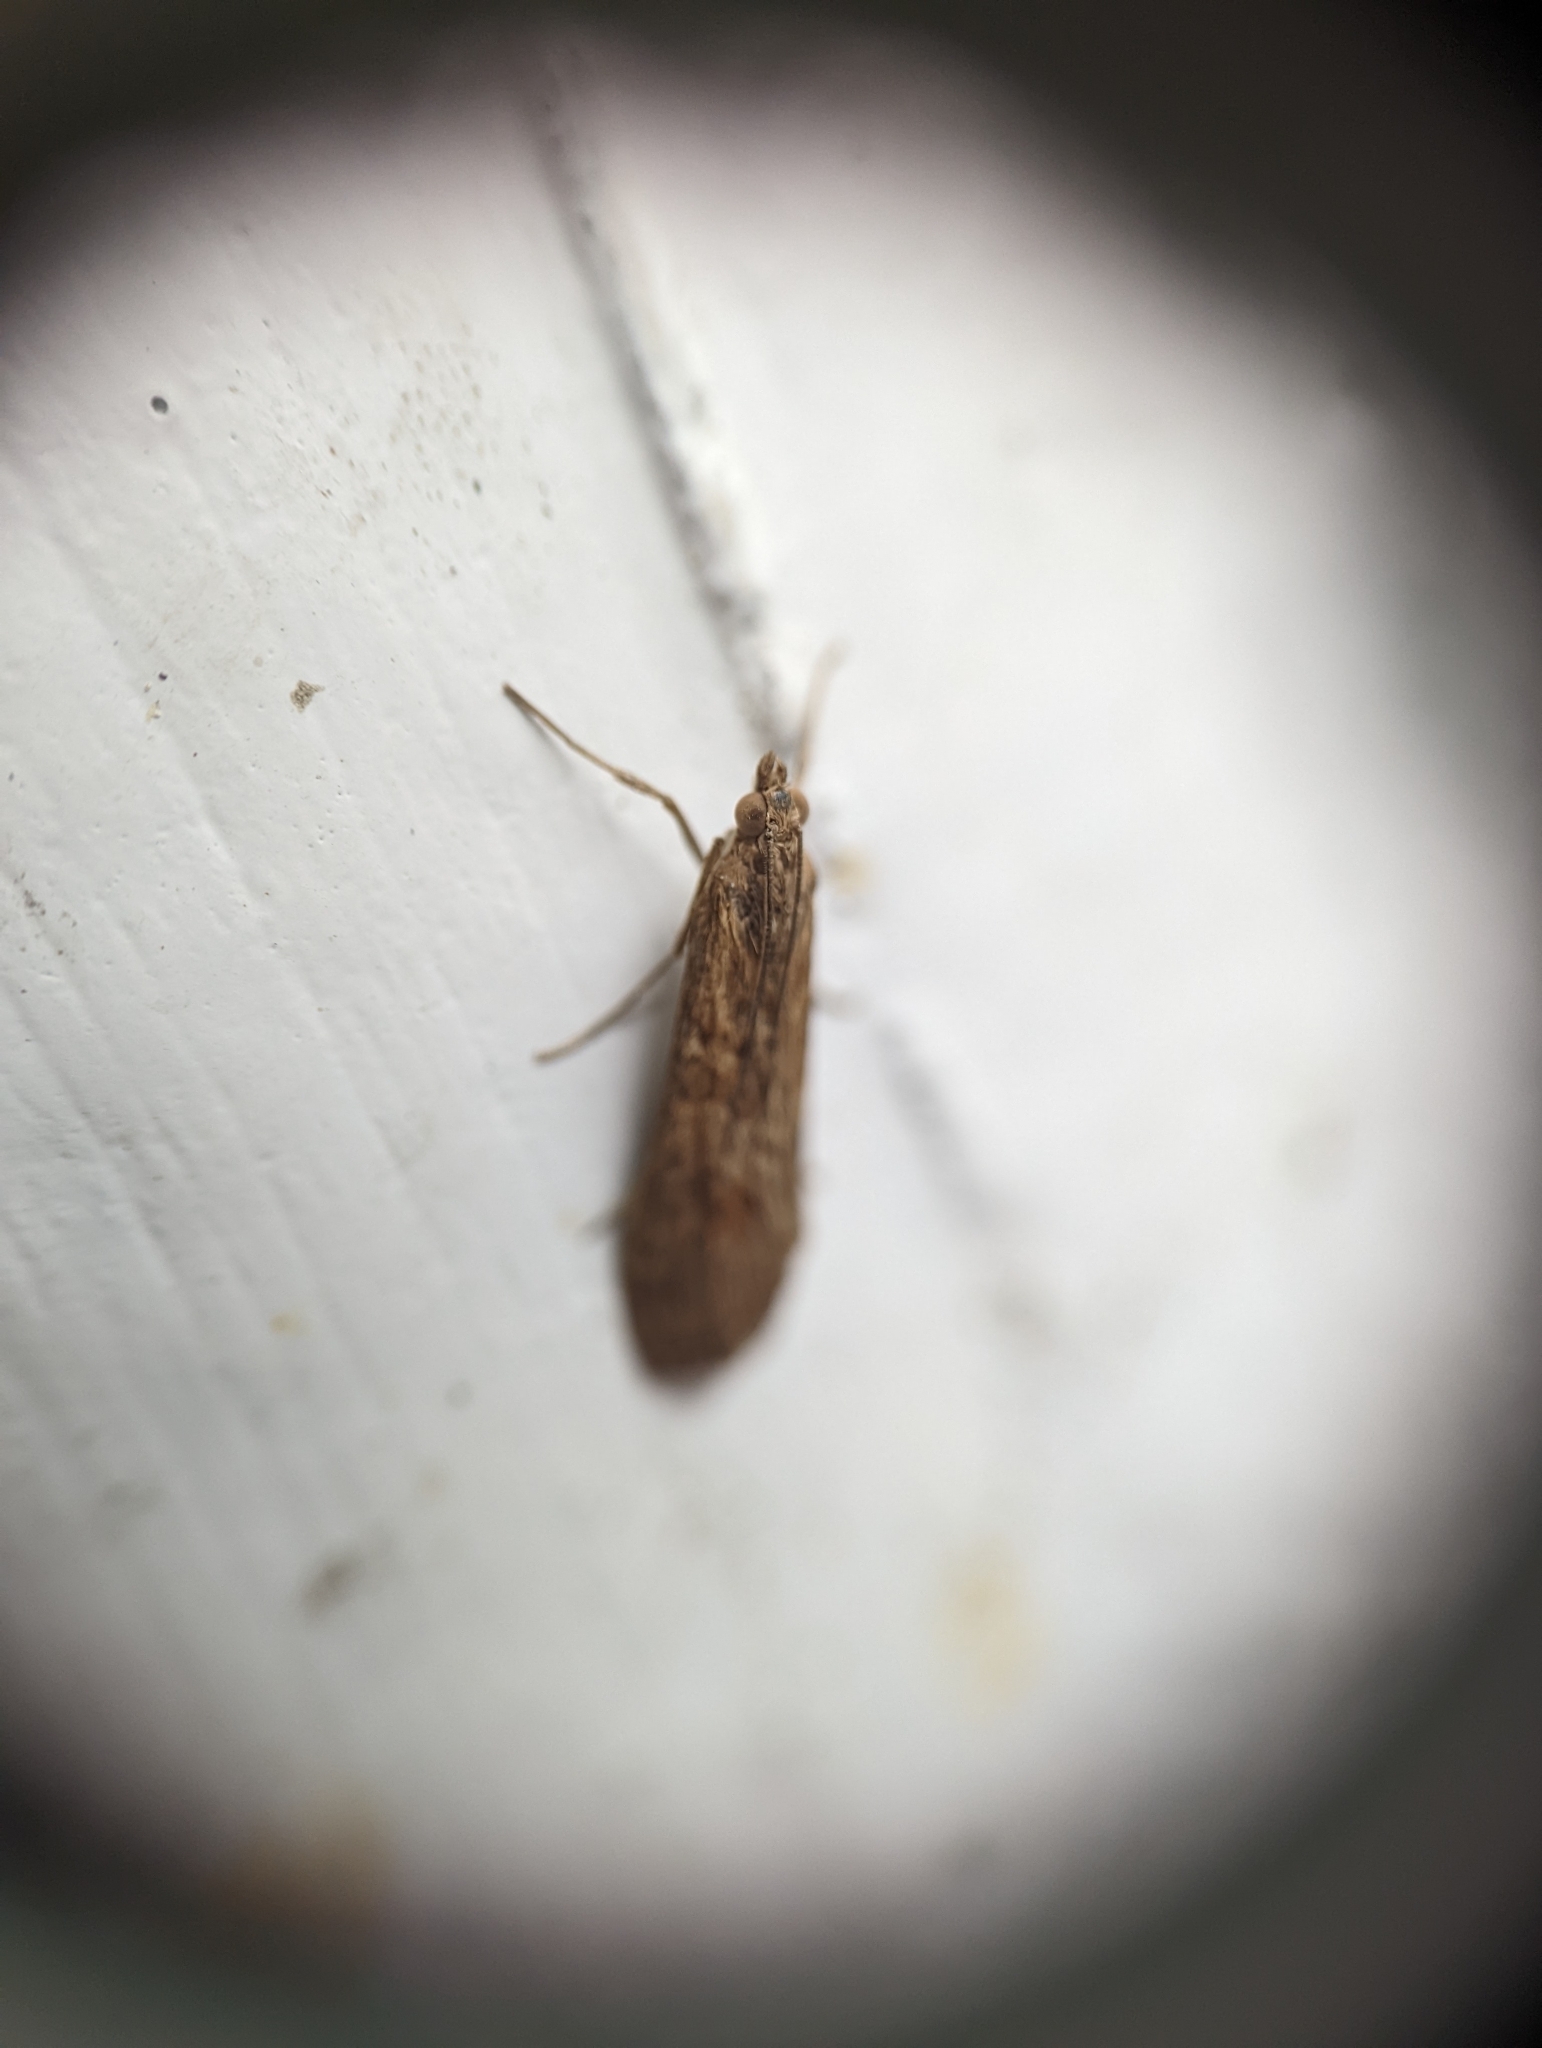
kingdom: Animalia
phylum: Arthropoda
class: Insecta
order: Lepidoptera
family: Crambidae
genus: Nomophila
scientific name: Nomophila noctuella
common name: Rush veneer
